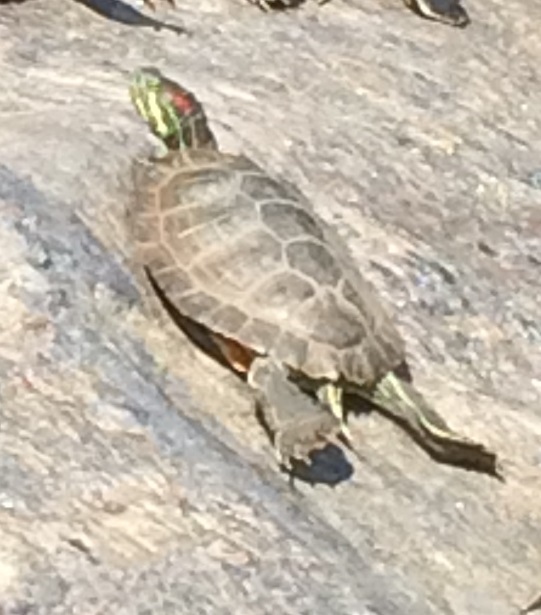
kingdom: Animalia
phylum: Chordata
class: Testudines
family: Emydidae
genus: Trachemys
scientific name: Trachemys scripta
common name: Slider
